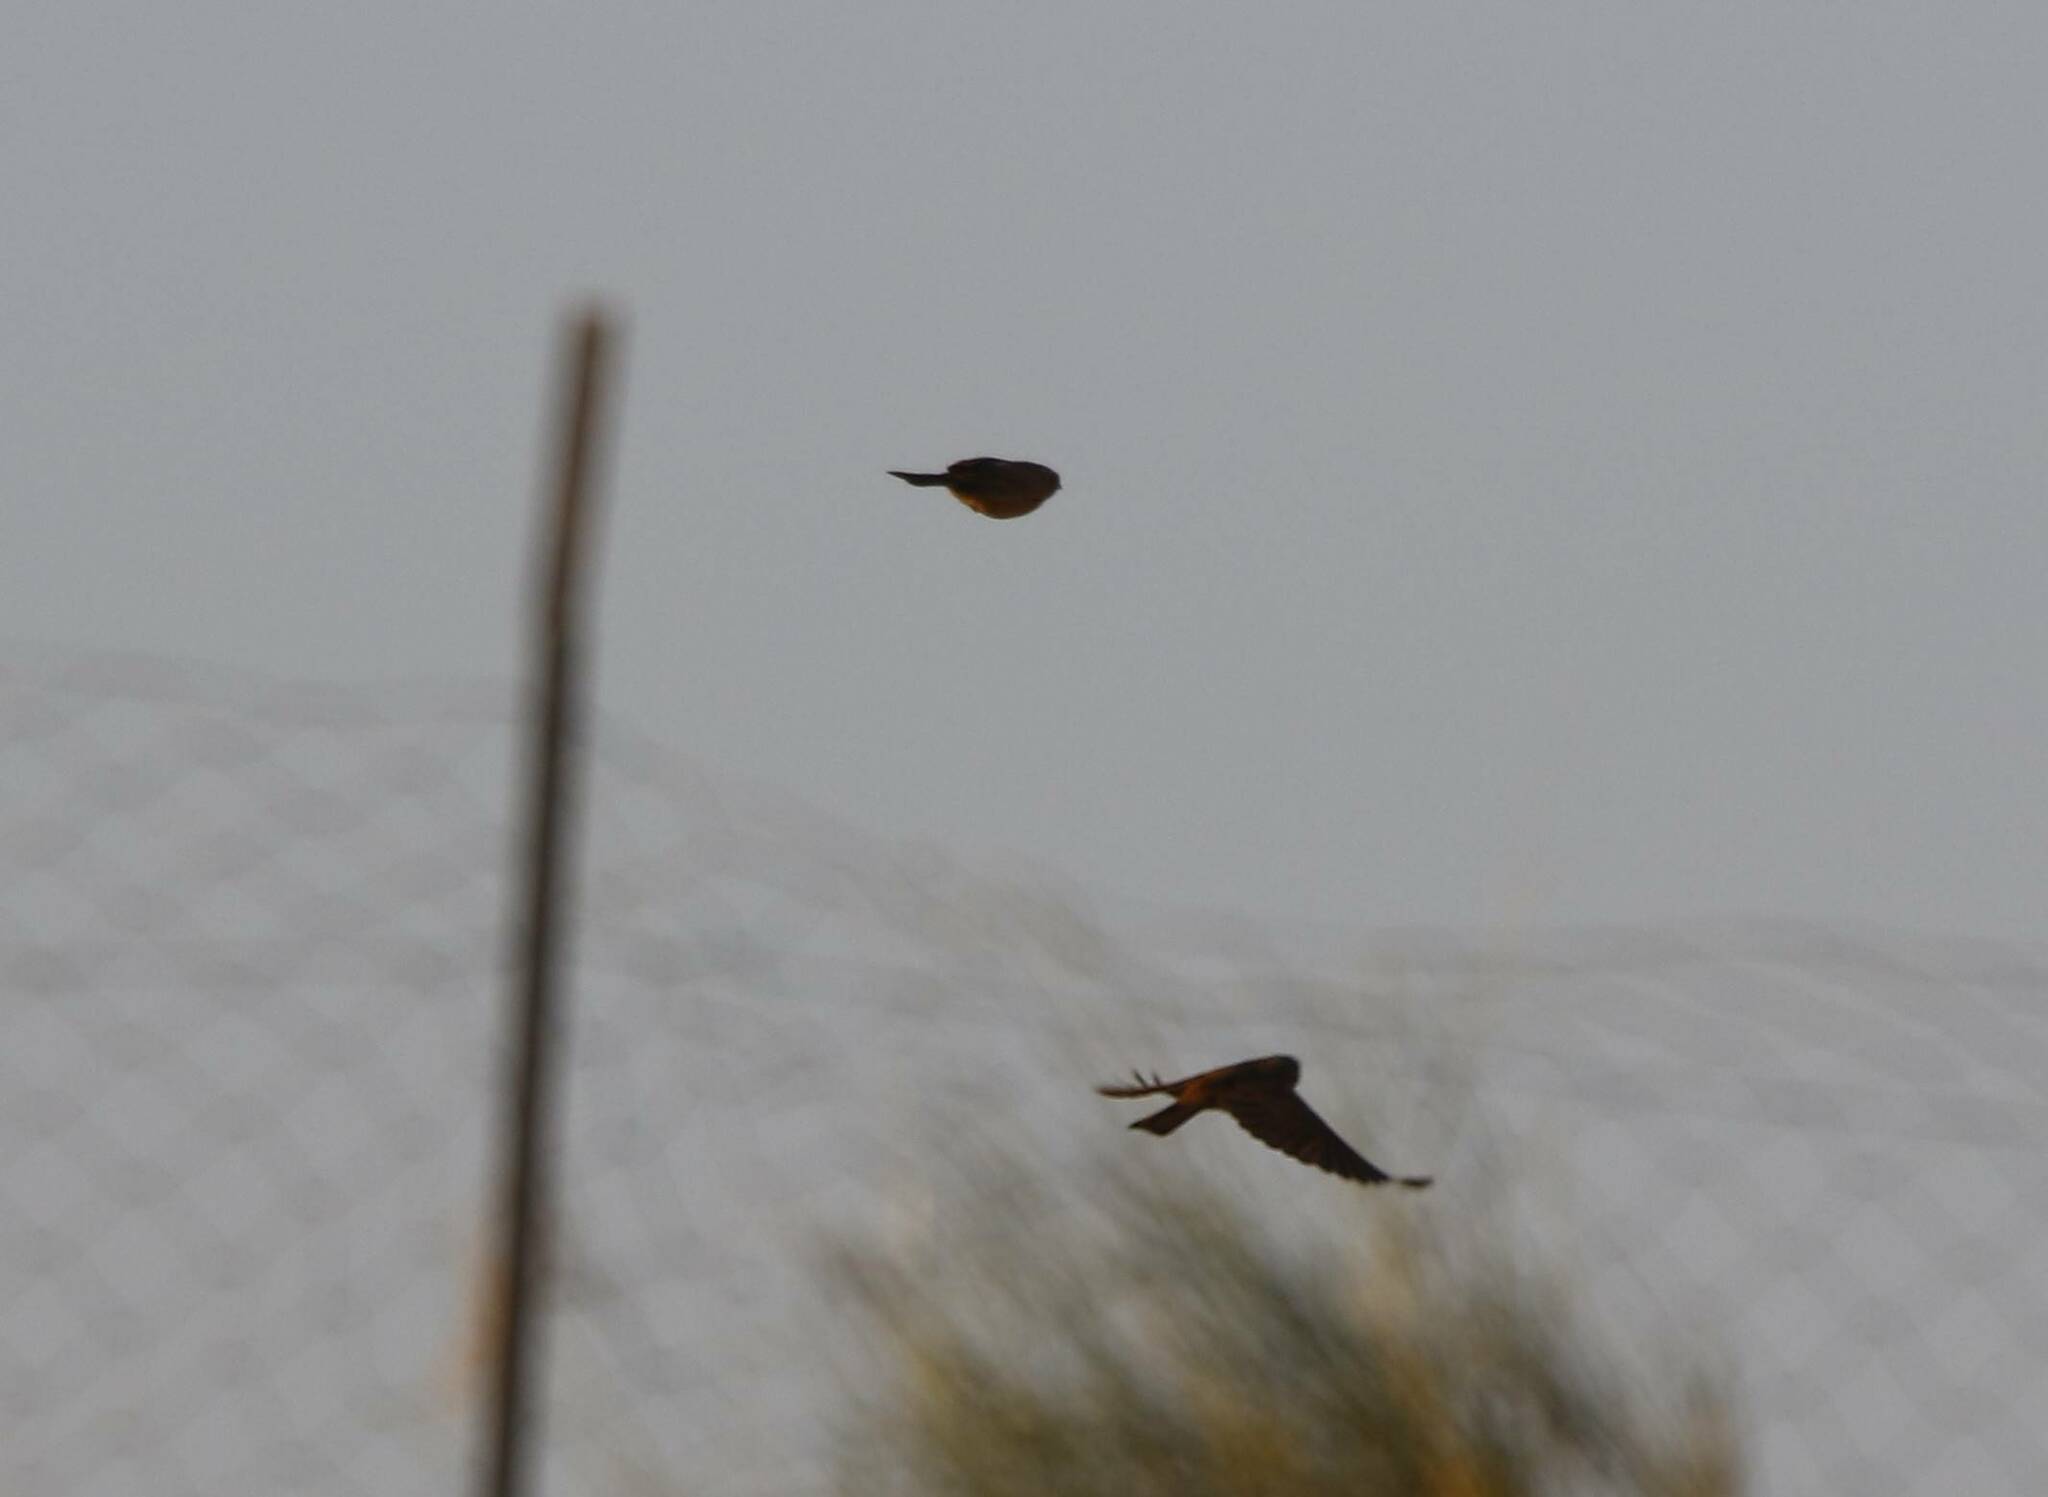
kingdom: Animalia
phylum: Chordata
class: Aves
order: Passeriformes
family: Emberizidae
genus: Emberiza
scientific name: Emberiza sahari
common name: House bunting
